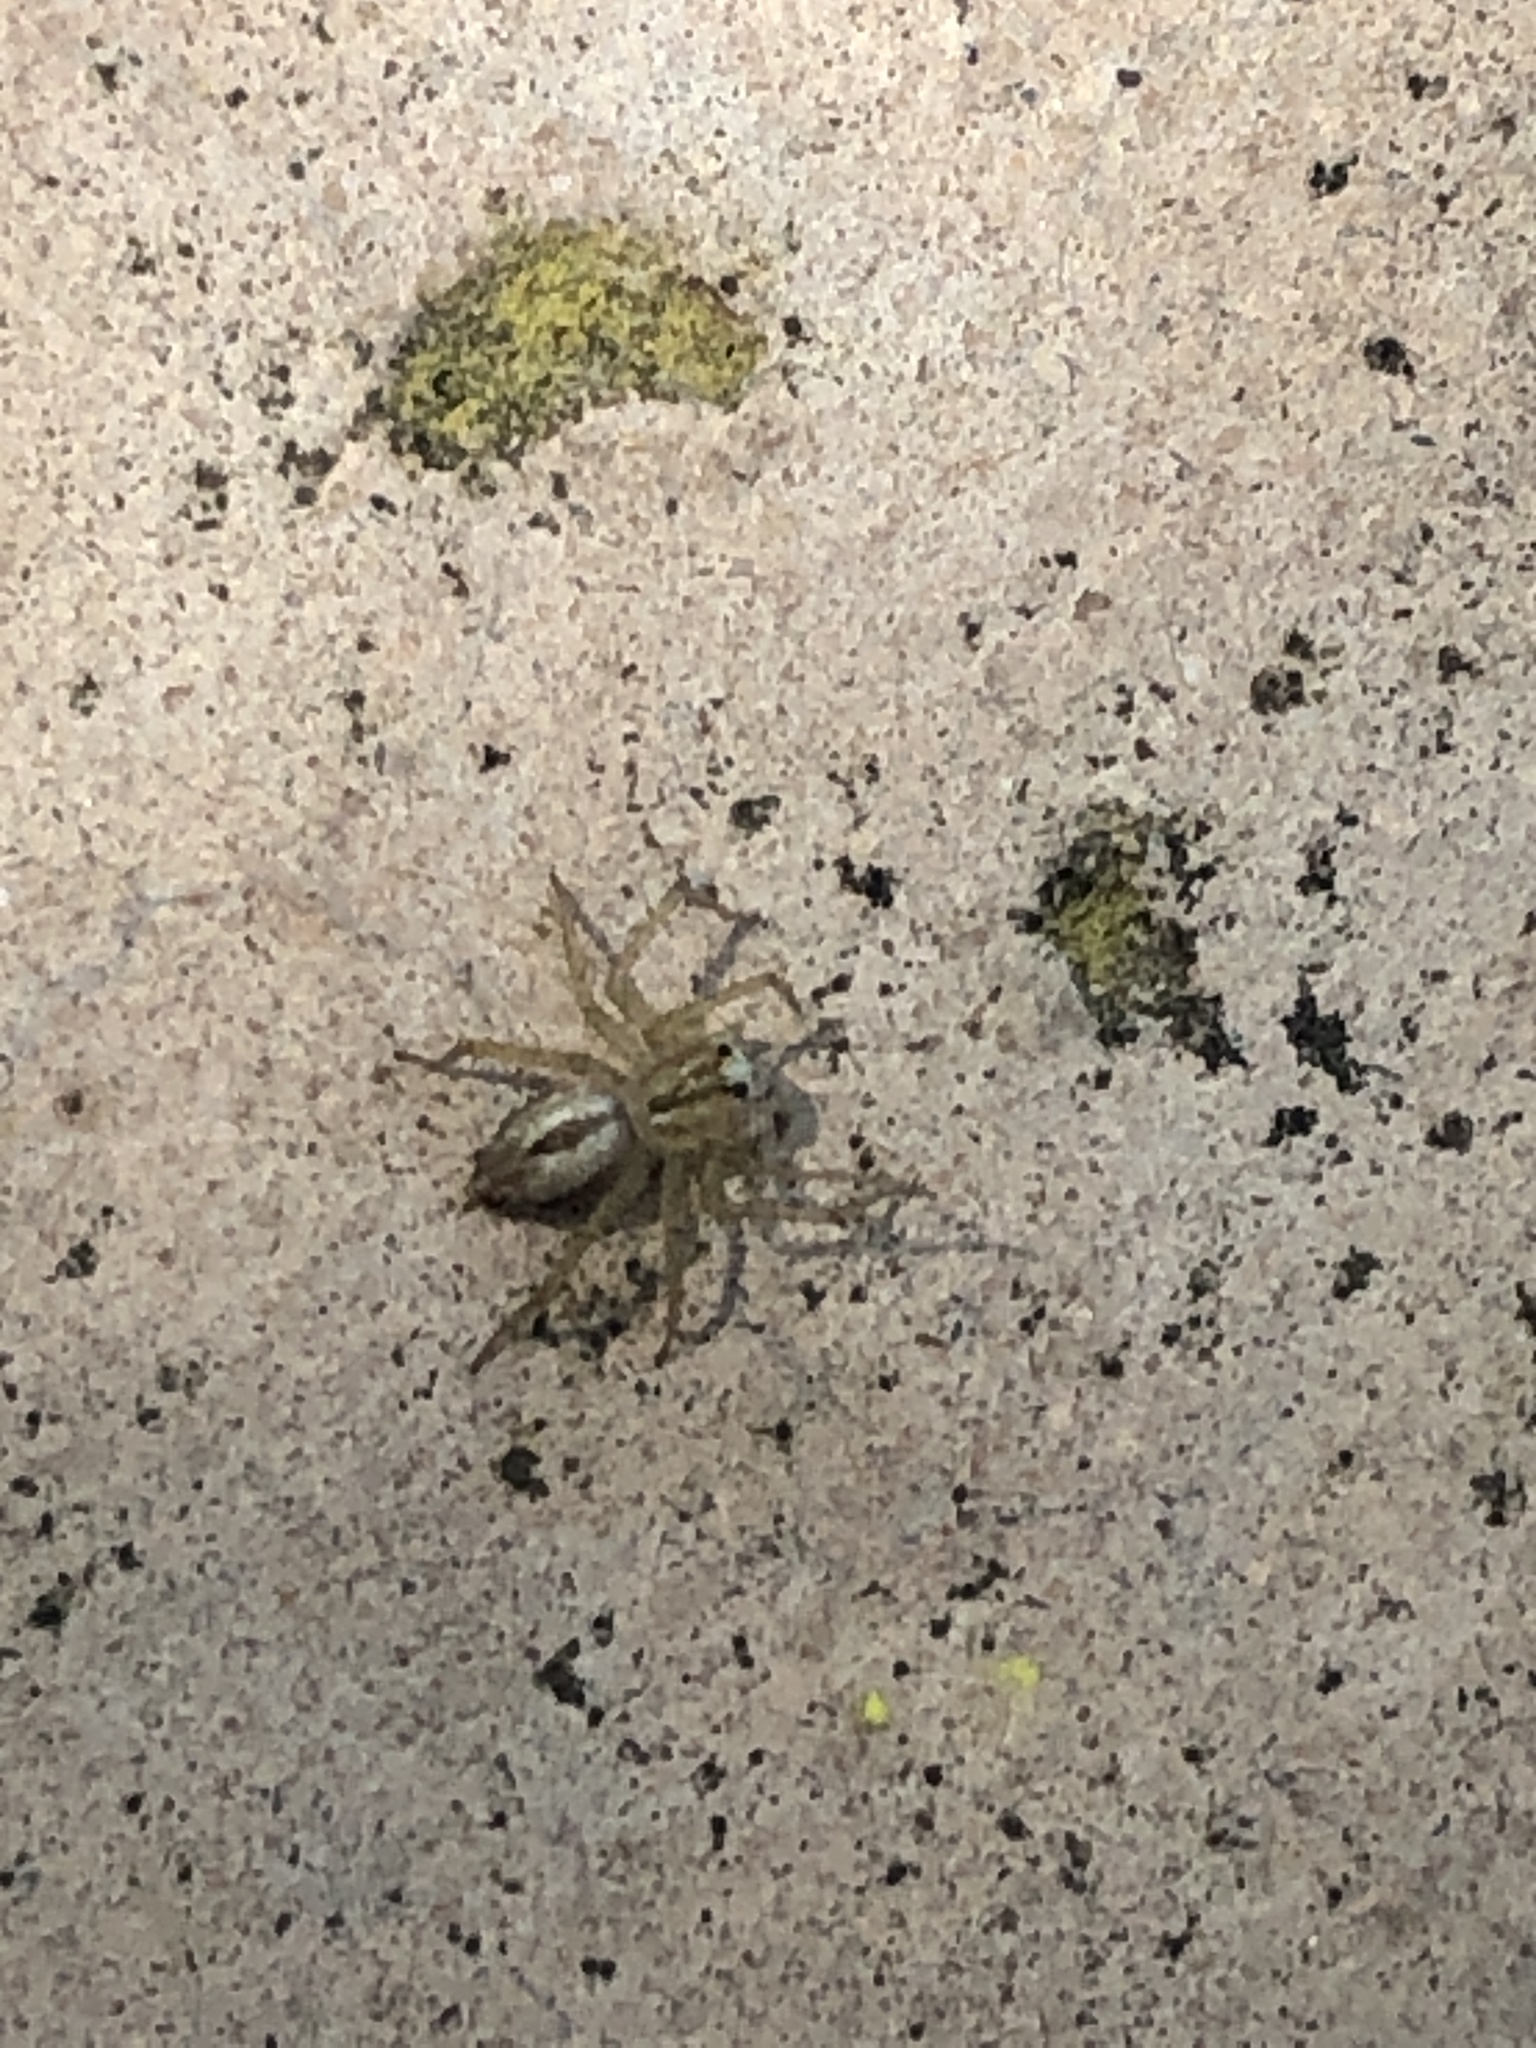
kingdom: Animalia
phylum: Arthropoda
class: Arachnida
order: Araneae
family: Oxyopidae
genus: Oxyopes
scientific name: Oxyopes salticus
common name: Lynx spiders
